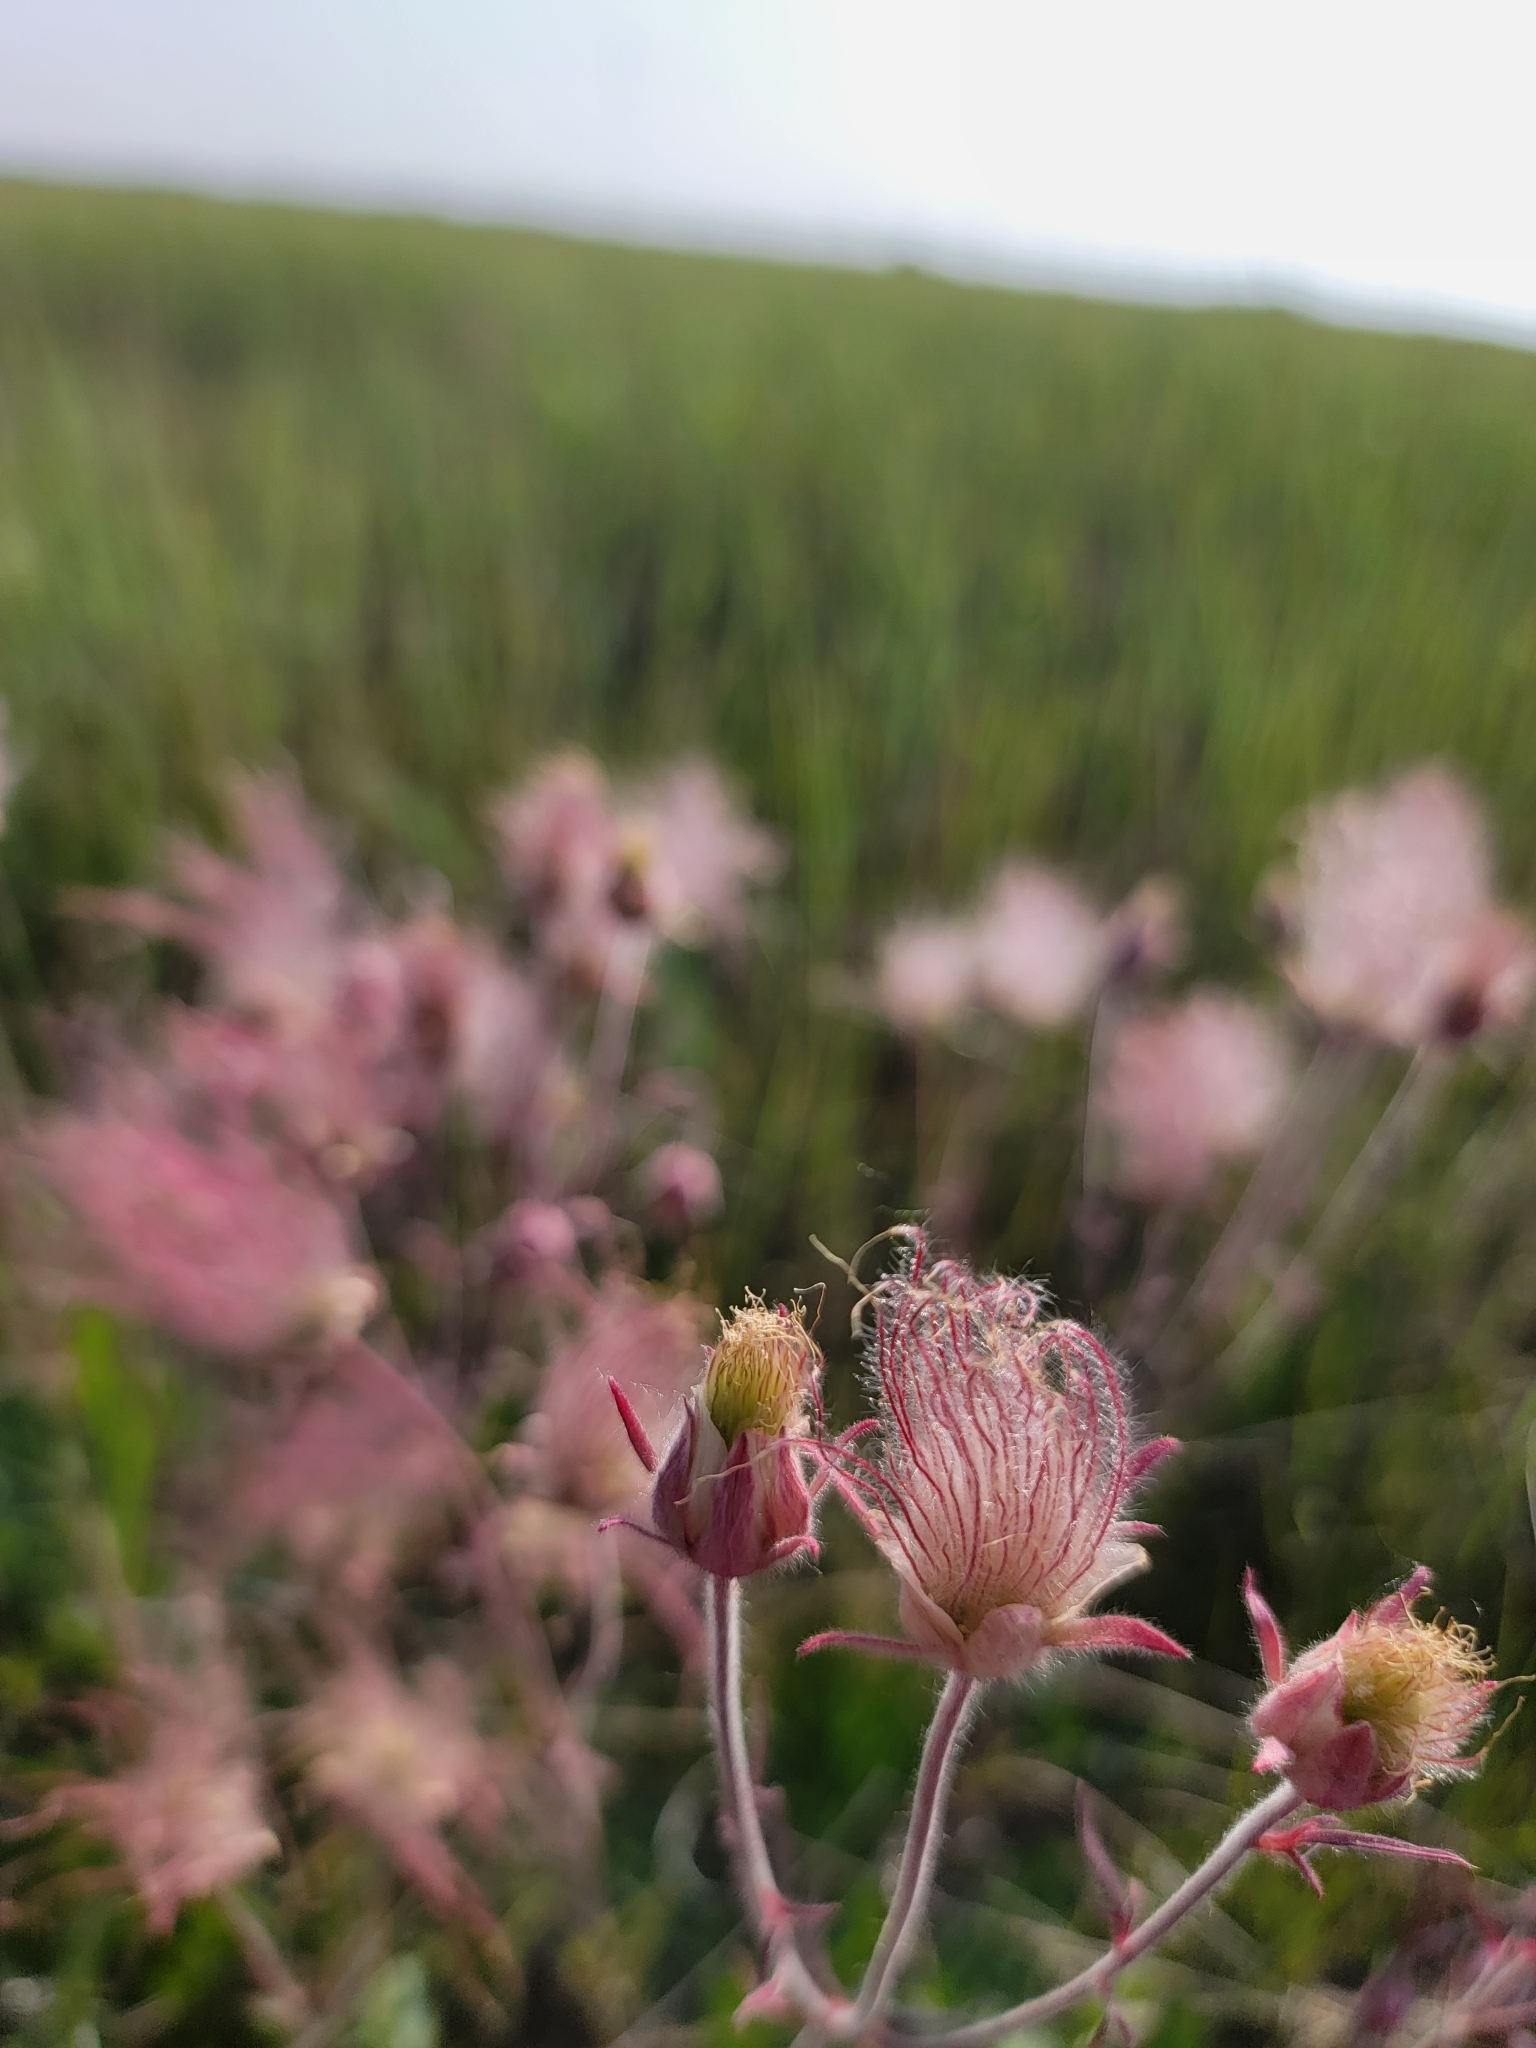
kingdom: Plantae
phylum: Tracheophyta
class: Magnoliopsida
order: Rosales
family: Rosaceae
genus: Geum
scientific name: Geum triflorum
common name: Old man's whiskers
